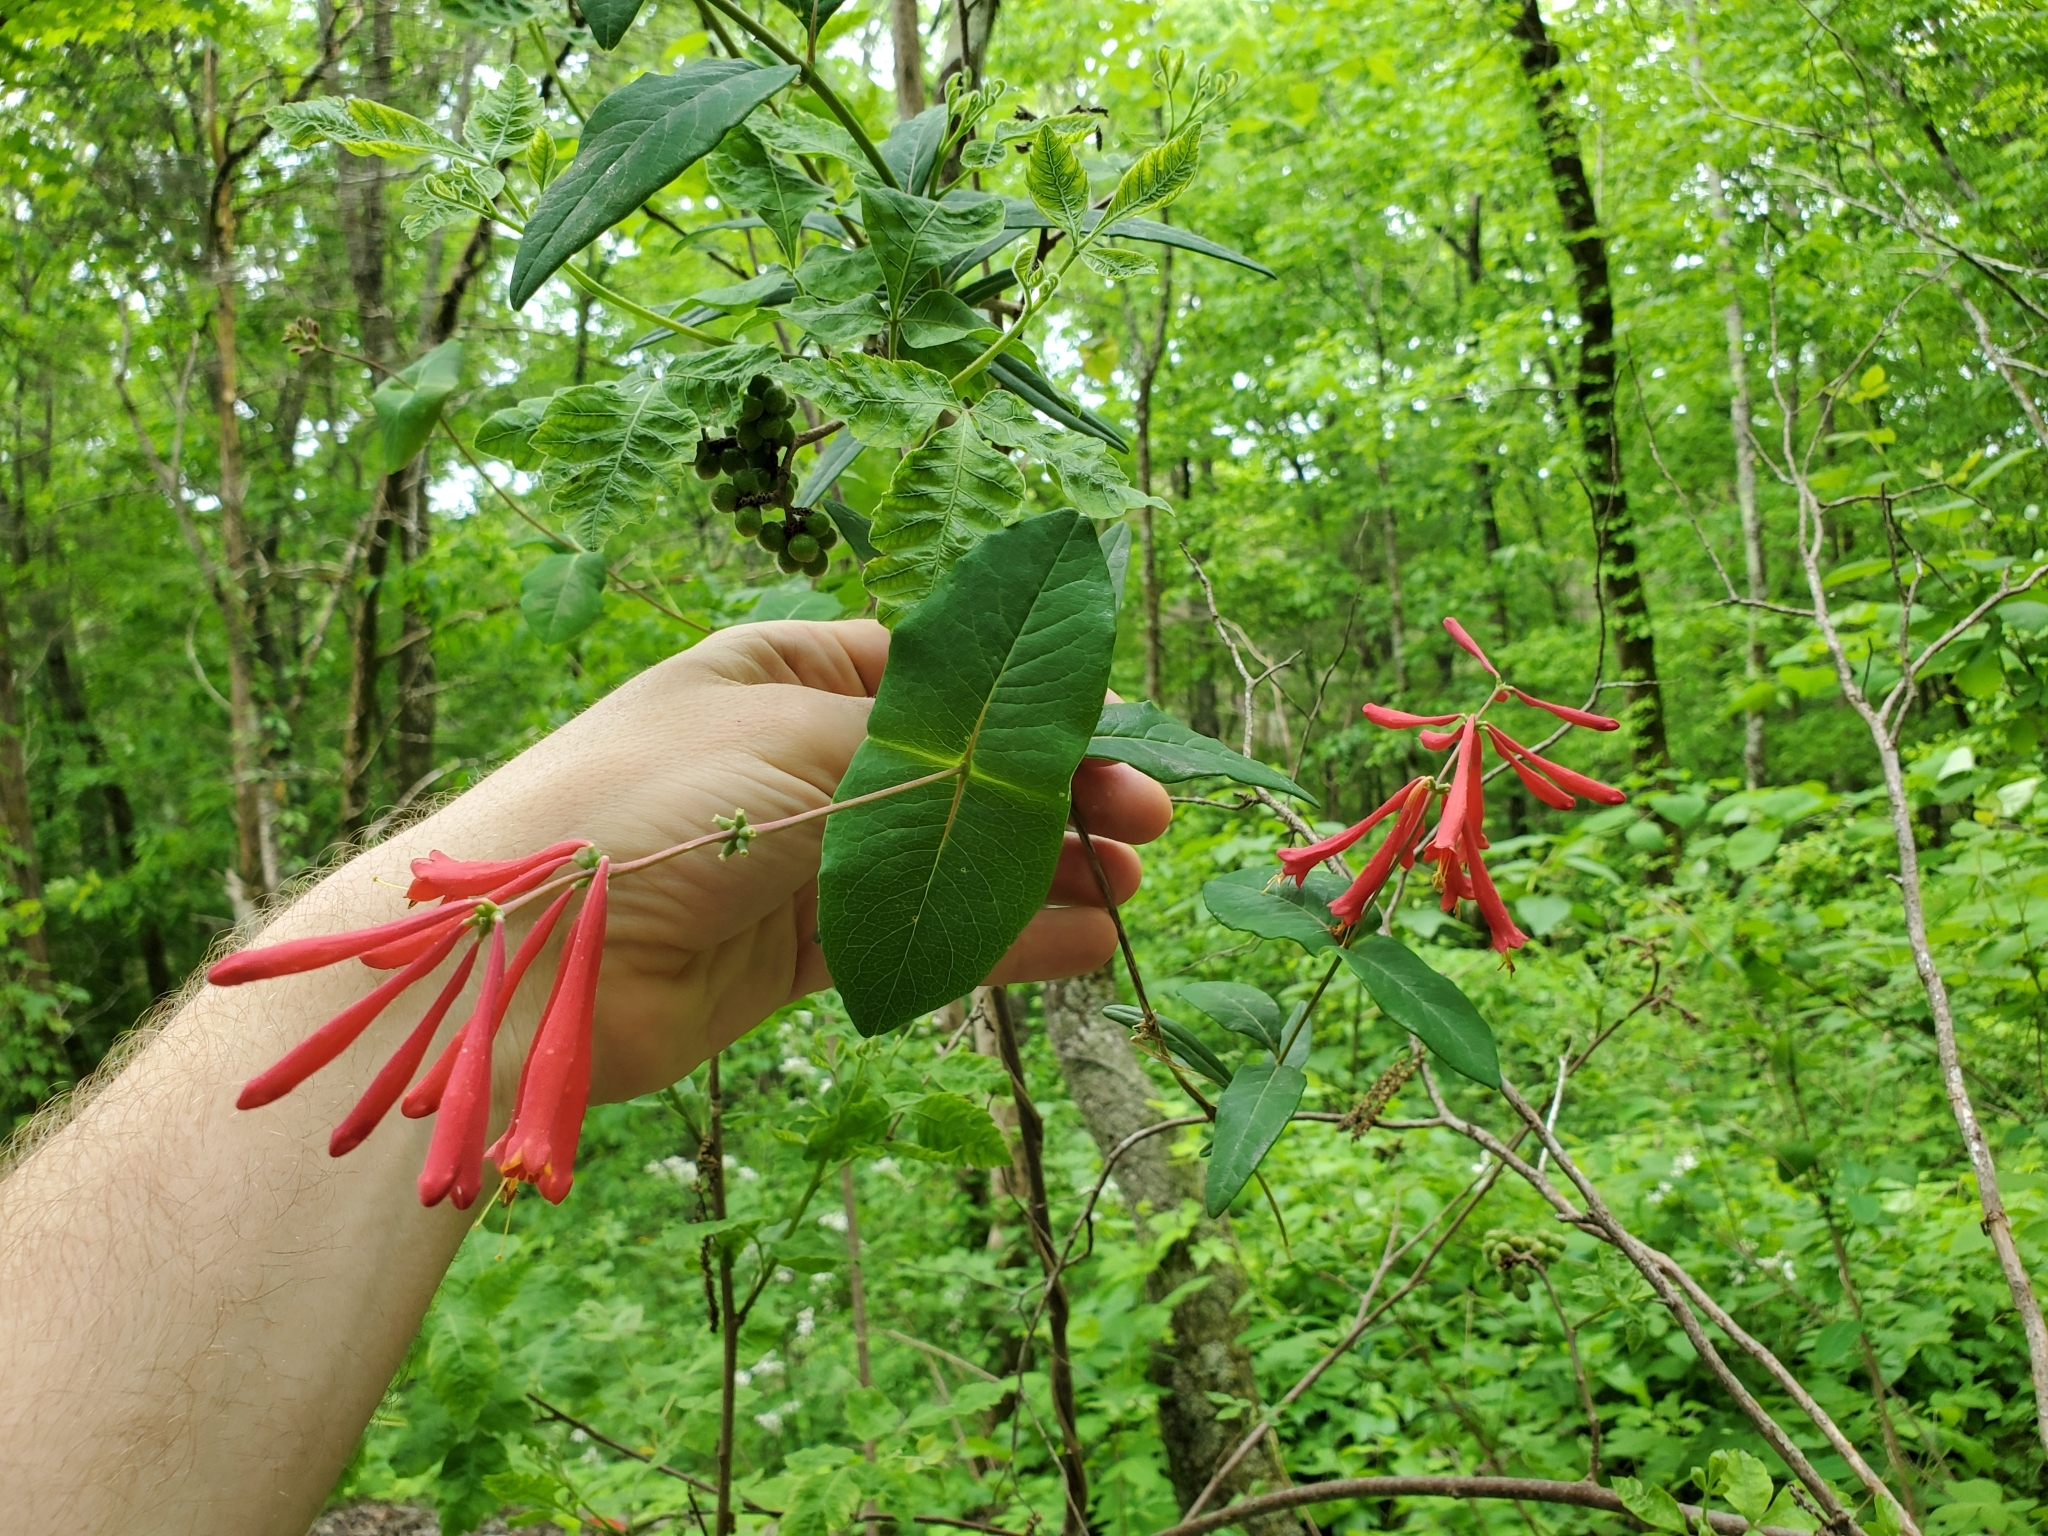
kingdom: Plantae
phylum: Tracheophyta
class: Magnoliopsida
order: Dipsacales
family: Caprifoliaceae
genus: Lonicera
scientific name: Lonicera sempervirens
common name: Coral honeysuckle
